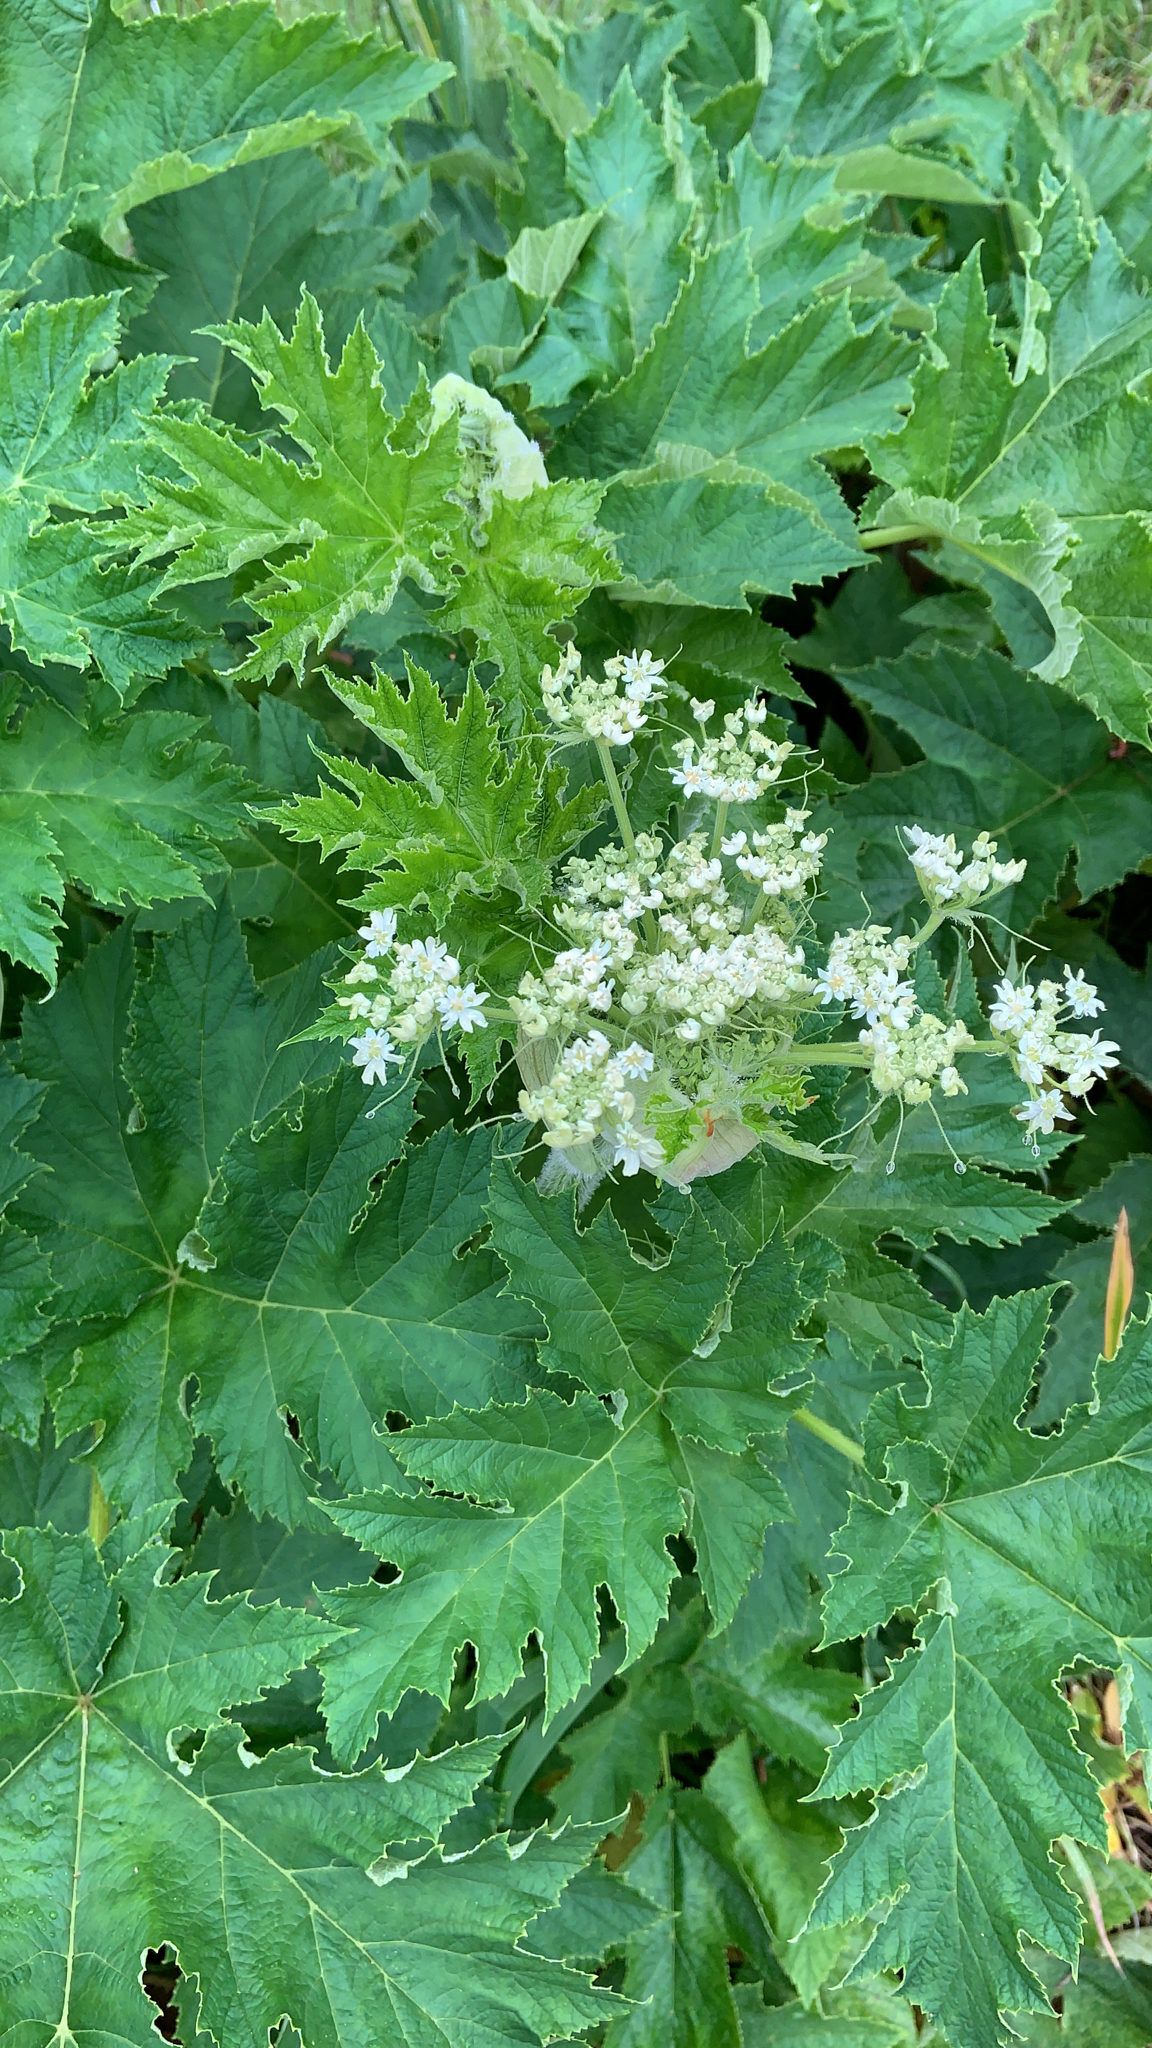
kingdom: Plantae
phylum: Tracheophyta
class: Magnoliopsida
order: Apiales
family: Apiaceae
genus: Heracleum
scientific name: Heracleum maximum
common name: American cow parsnip
